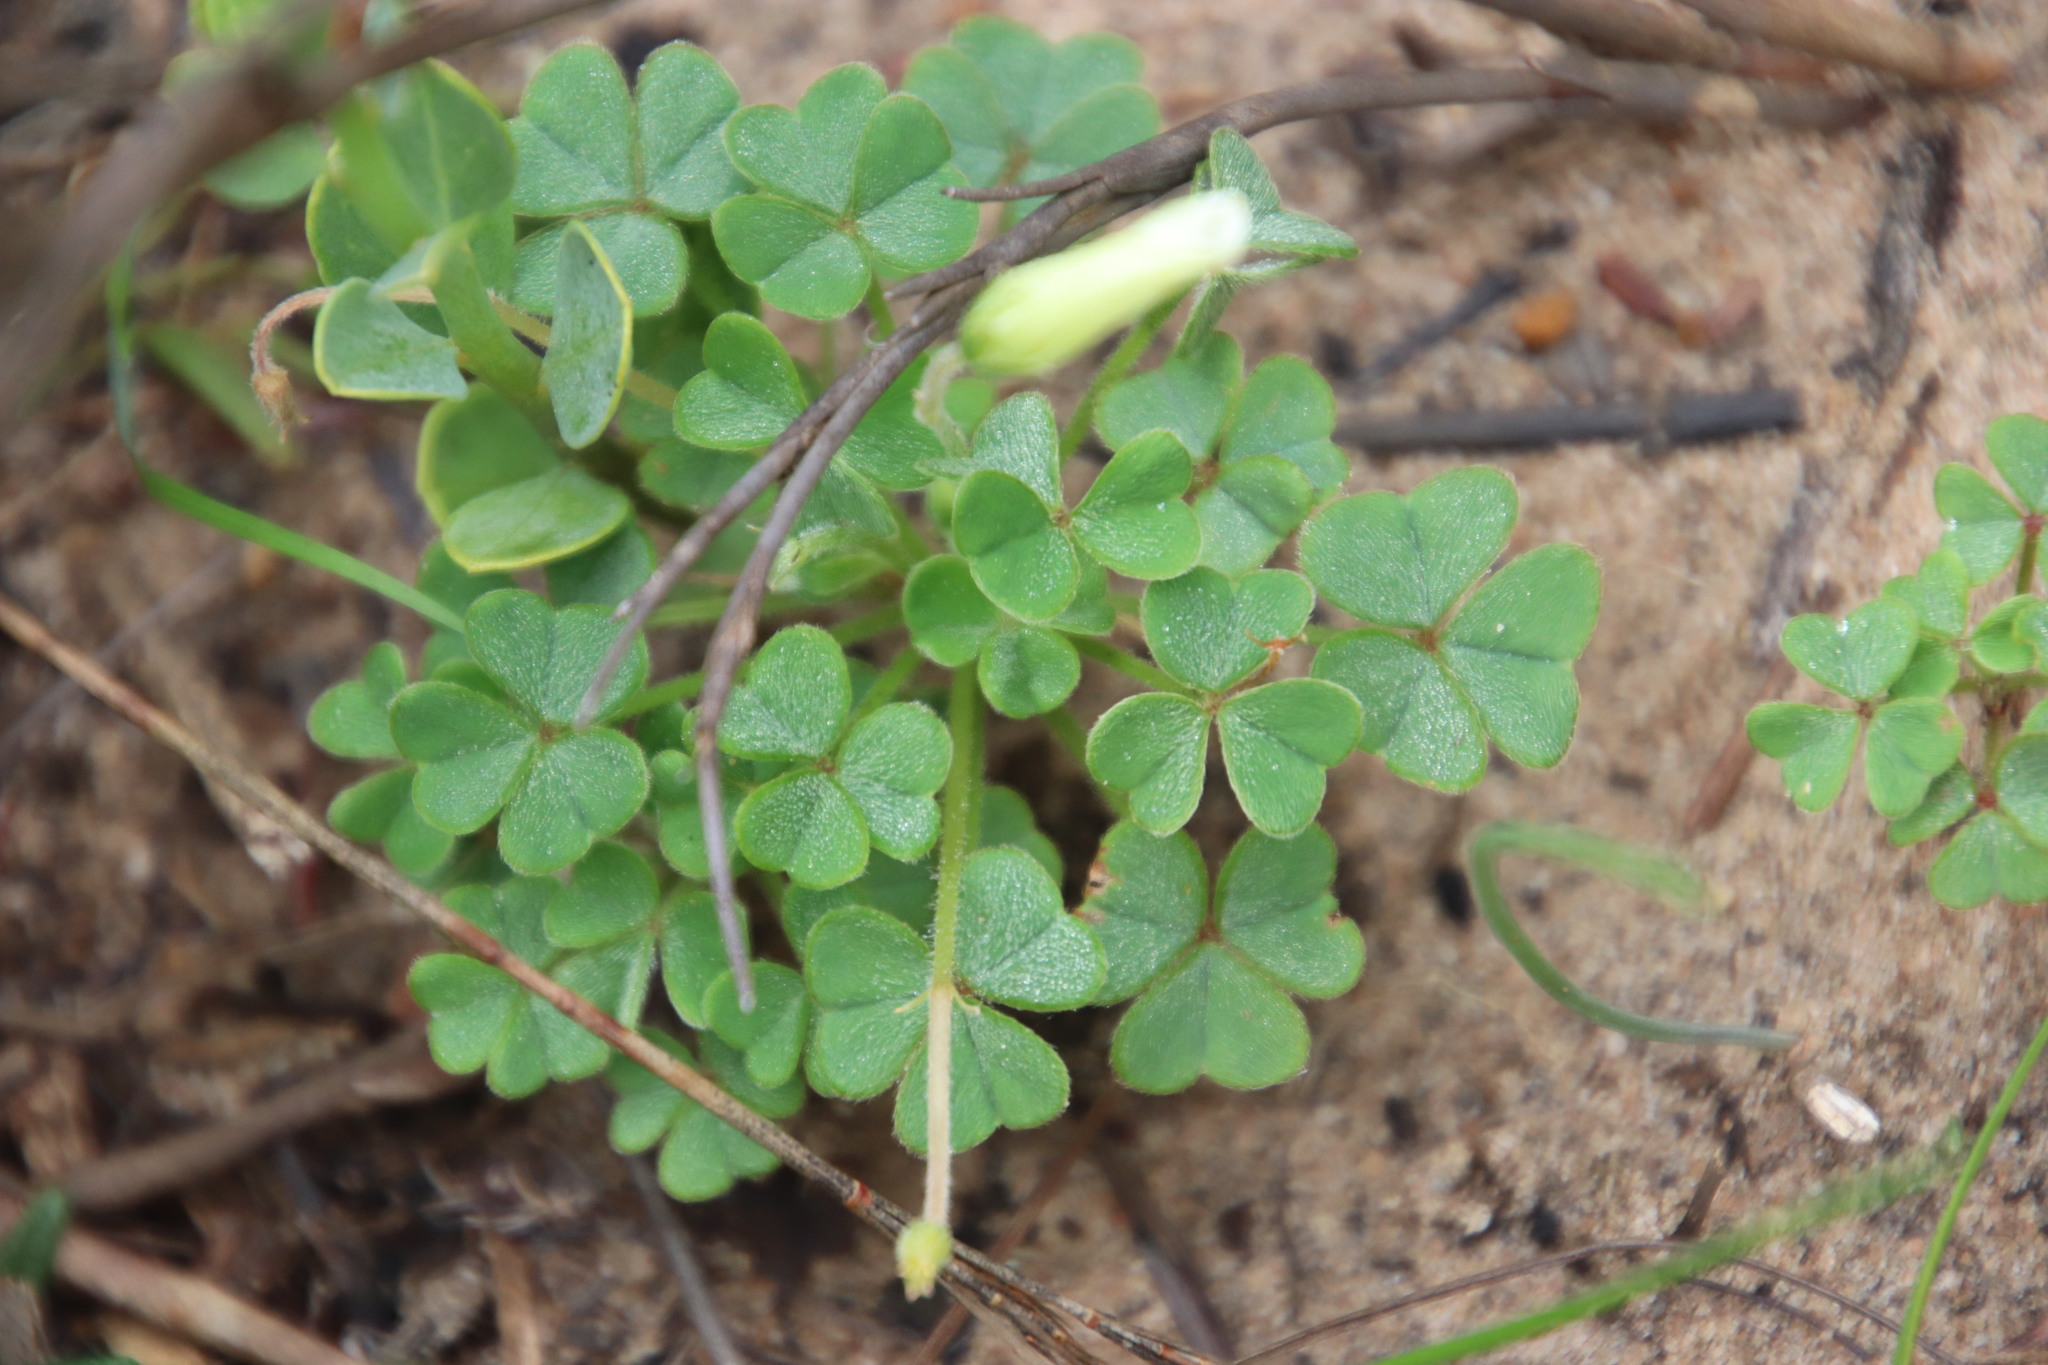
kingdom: Plantae
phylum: Tracheophyta
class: Magnoliopsida
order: Oxalidales
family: Oxalidaceae
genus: Oxalis
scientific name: Oxalis lanata
